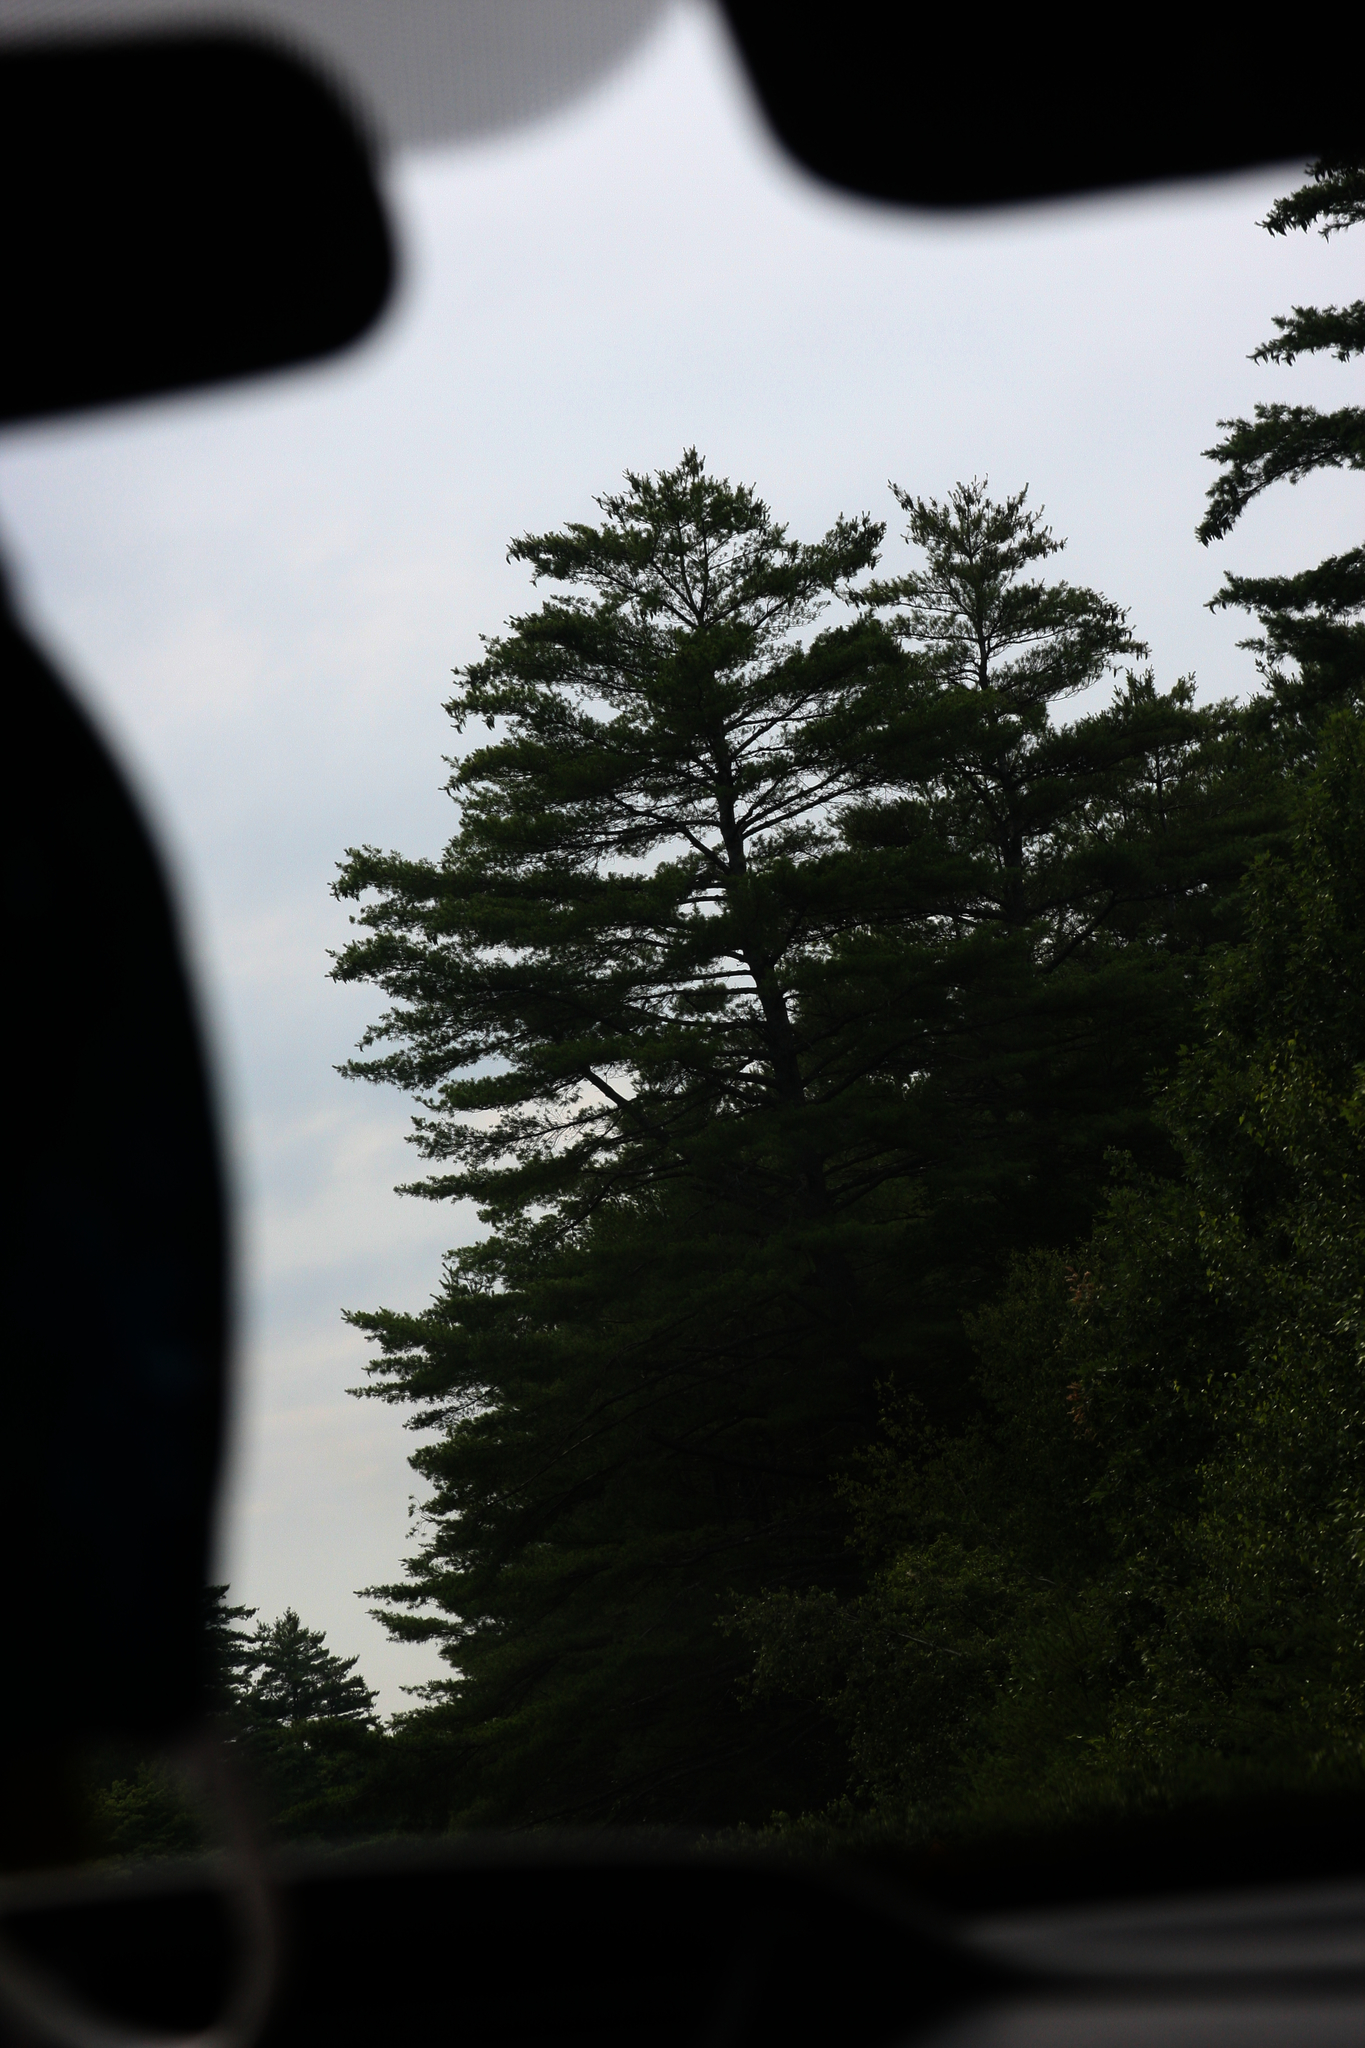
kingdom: Plantae
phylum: Tracheophyta
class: Pinopsida
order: Pinales
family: Pinaceae
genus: Pinus
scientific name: Pinus strobus
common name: Weymouth pine
